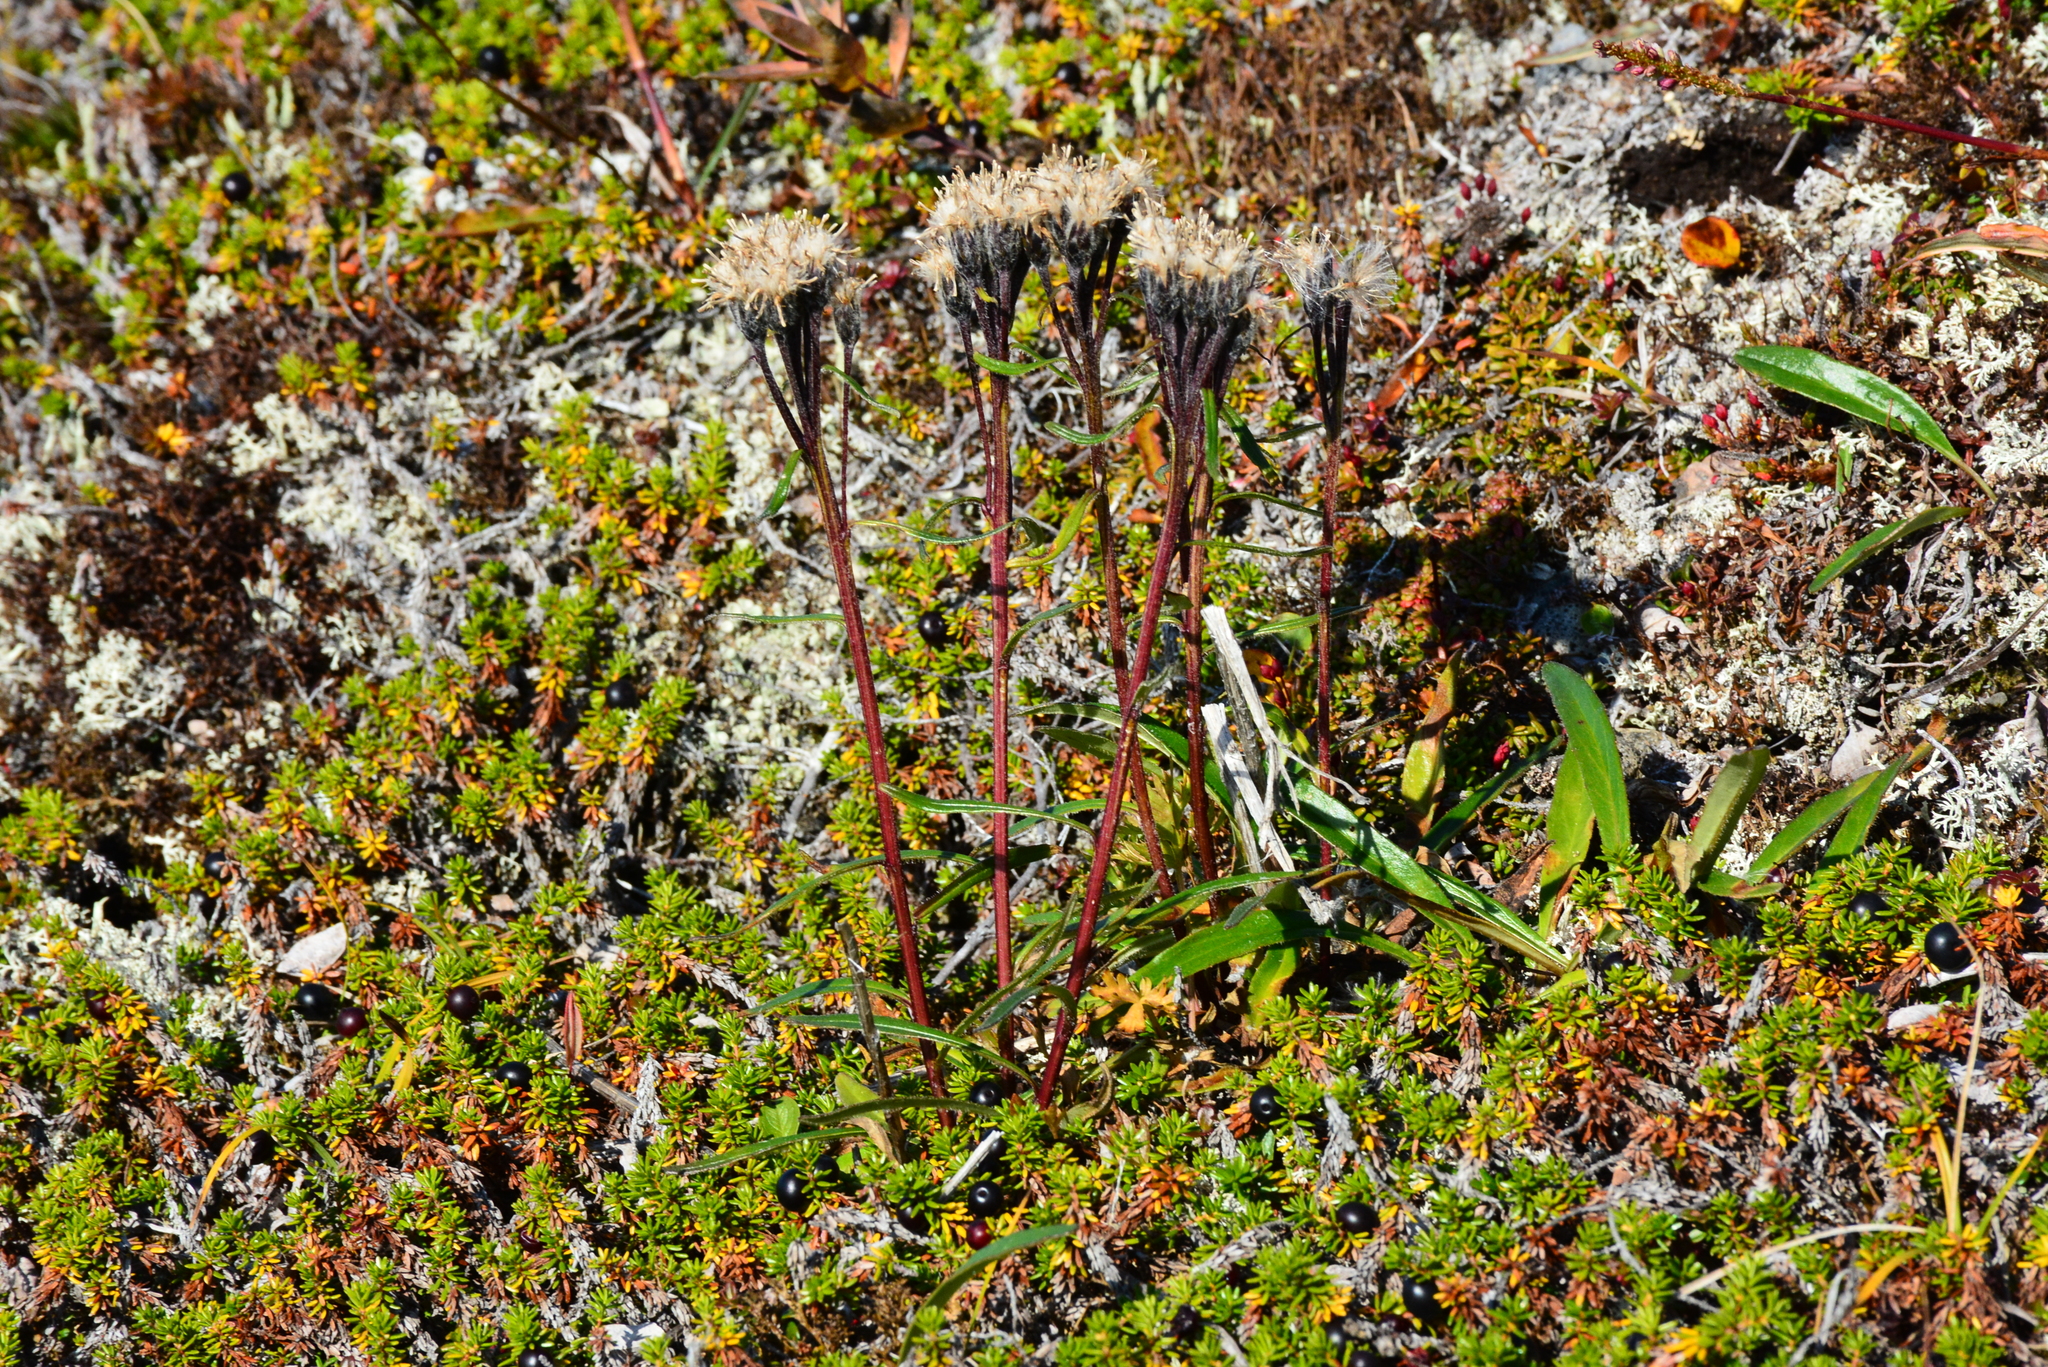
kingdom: Plantae
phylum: Tracheophyta
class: Magnoliopsida
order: Asterales
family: Asteraceae
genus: Saussurea
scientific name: Saussurea angustifolia
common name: Common saussurea
